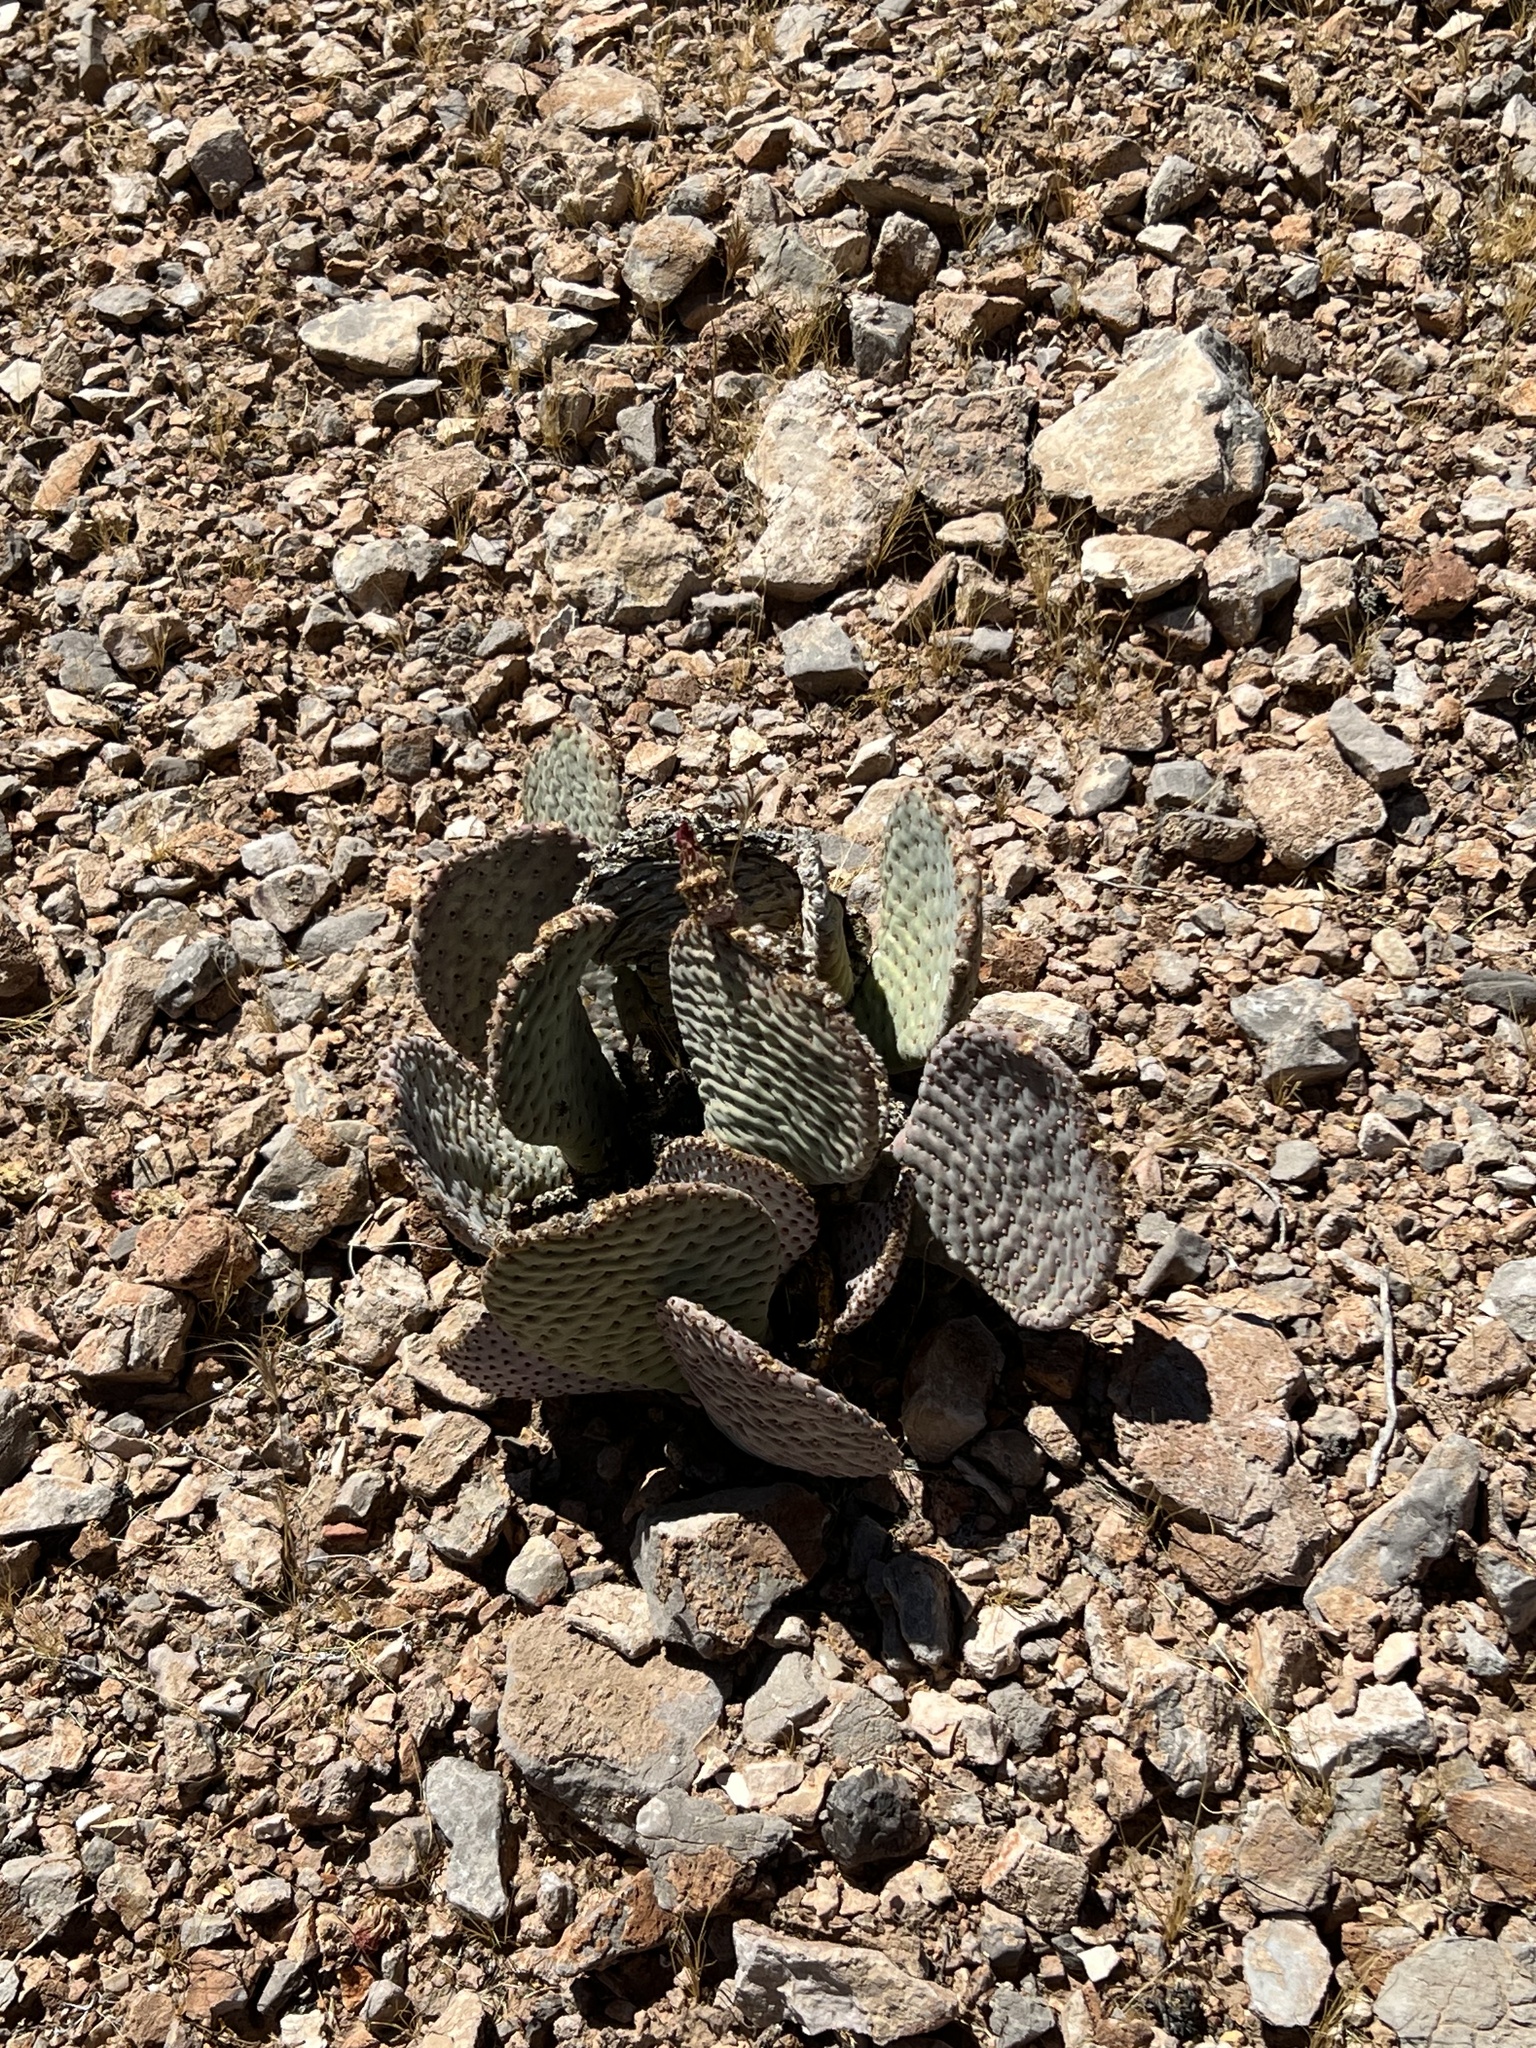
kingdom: Plantae
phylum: Tracheophyta
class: Magnoliopsida
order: Caryophyllales
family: Cactaceae
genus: Opuntia
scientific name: Opuntia basilaris
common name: Beavertail prickly-pear
